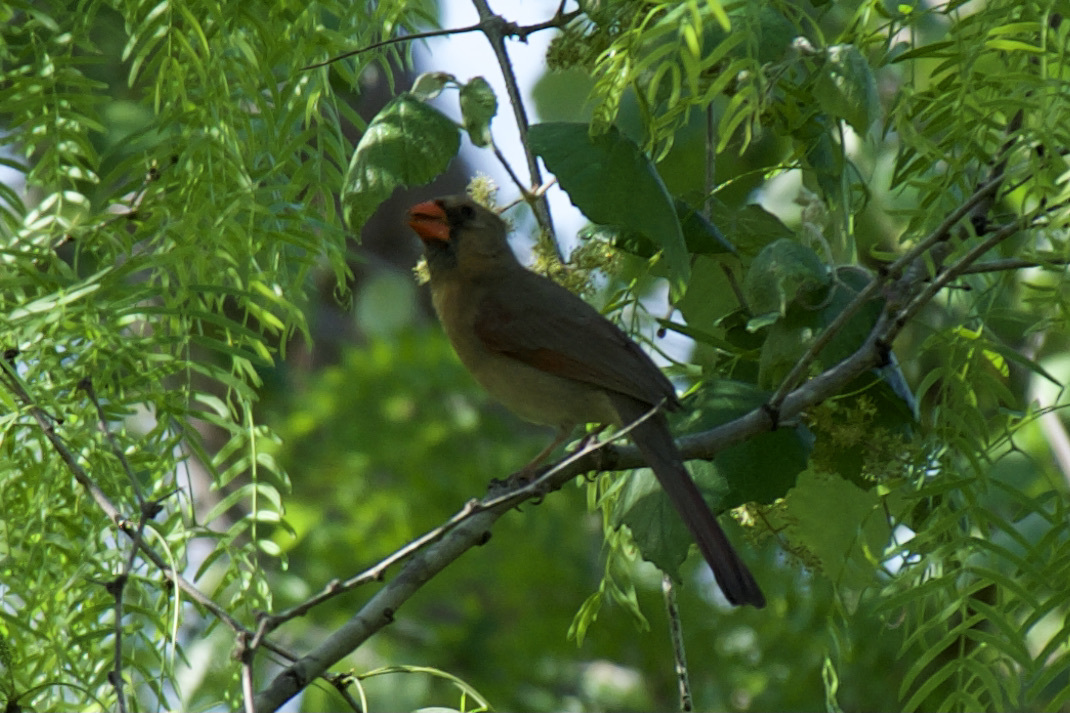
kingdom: Animalia
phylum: Chordata
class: Aves
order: Passeriformes
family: Cardinalidae
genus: Cardinalis
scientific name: Cardinalis cardinalis
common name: Northern cardinal
